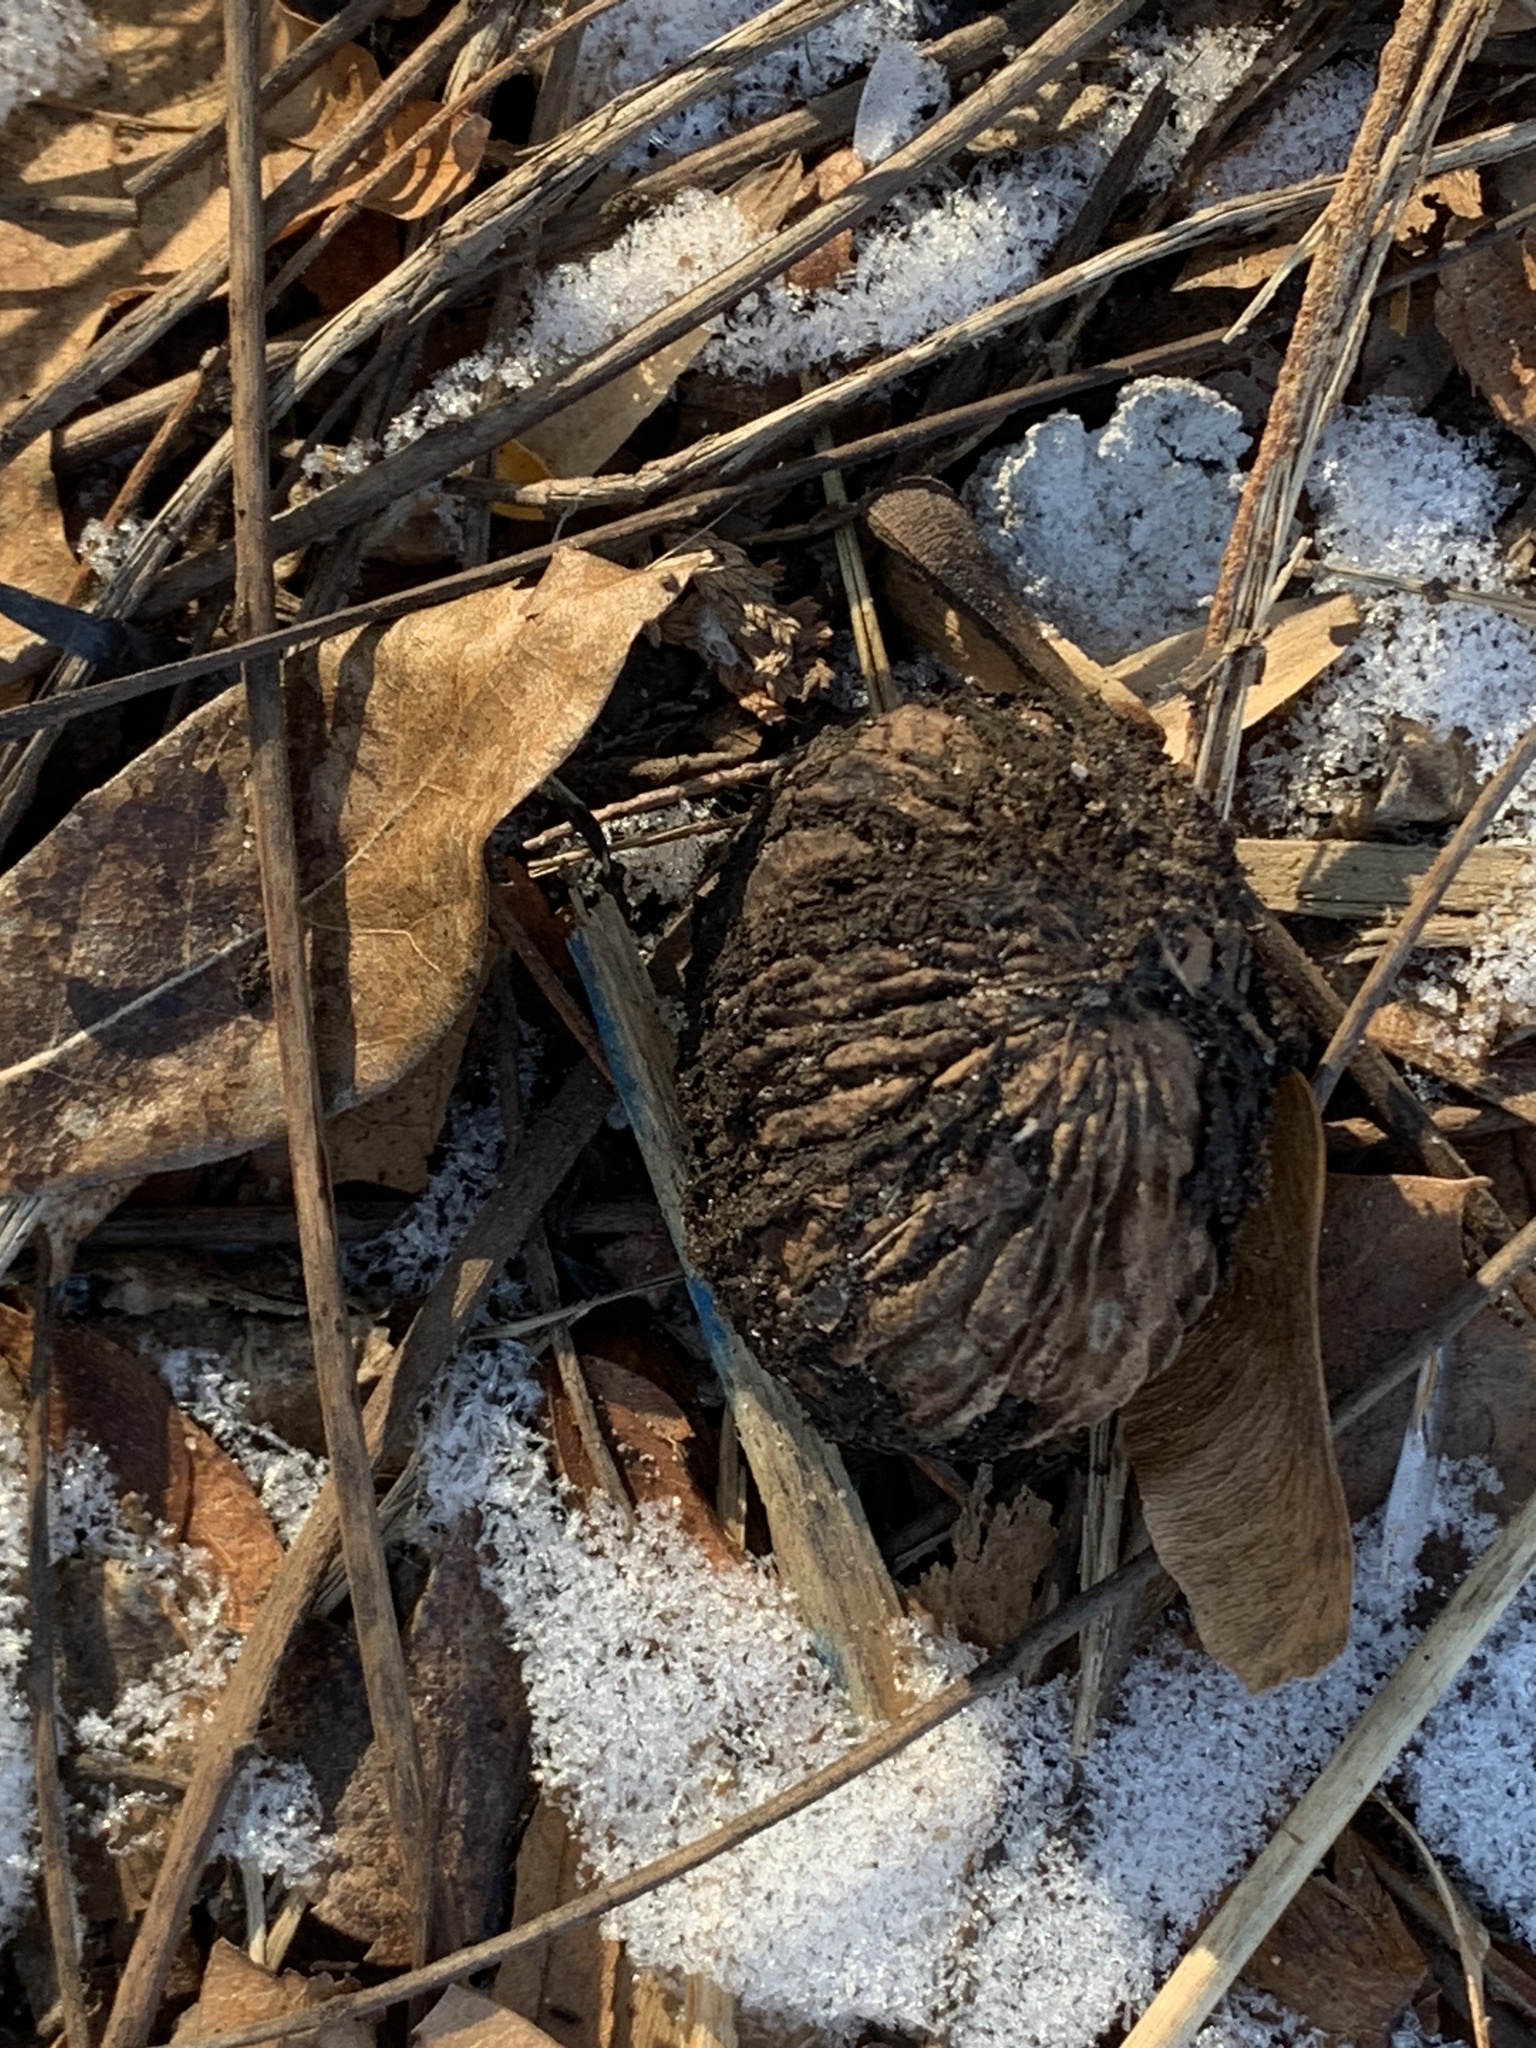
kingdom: Plantae
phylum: Tracheophyta
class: Magnoliopsida
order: Fagales
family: Juglandaceae
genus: Juglans
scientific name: Juglans nigra
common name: Black walnut
